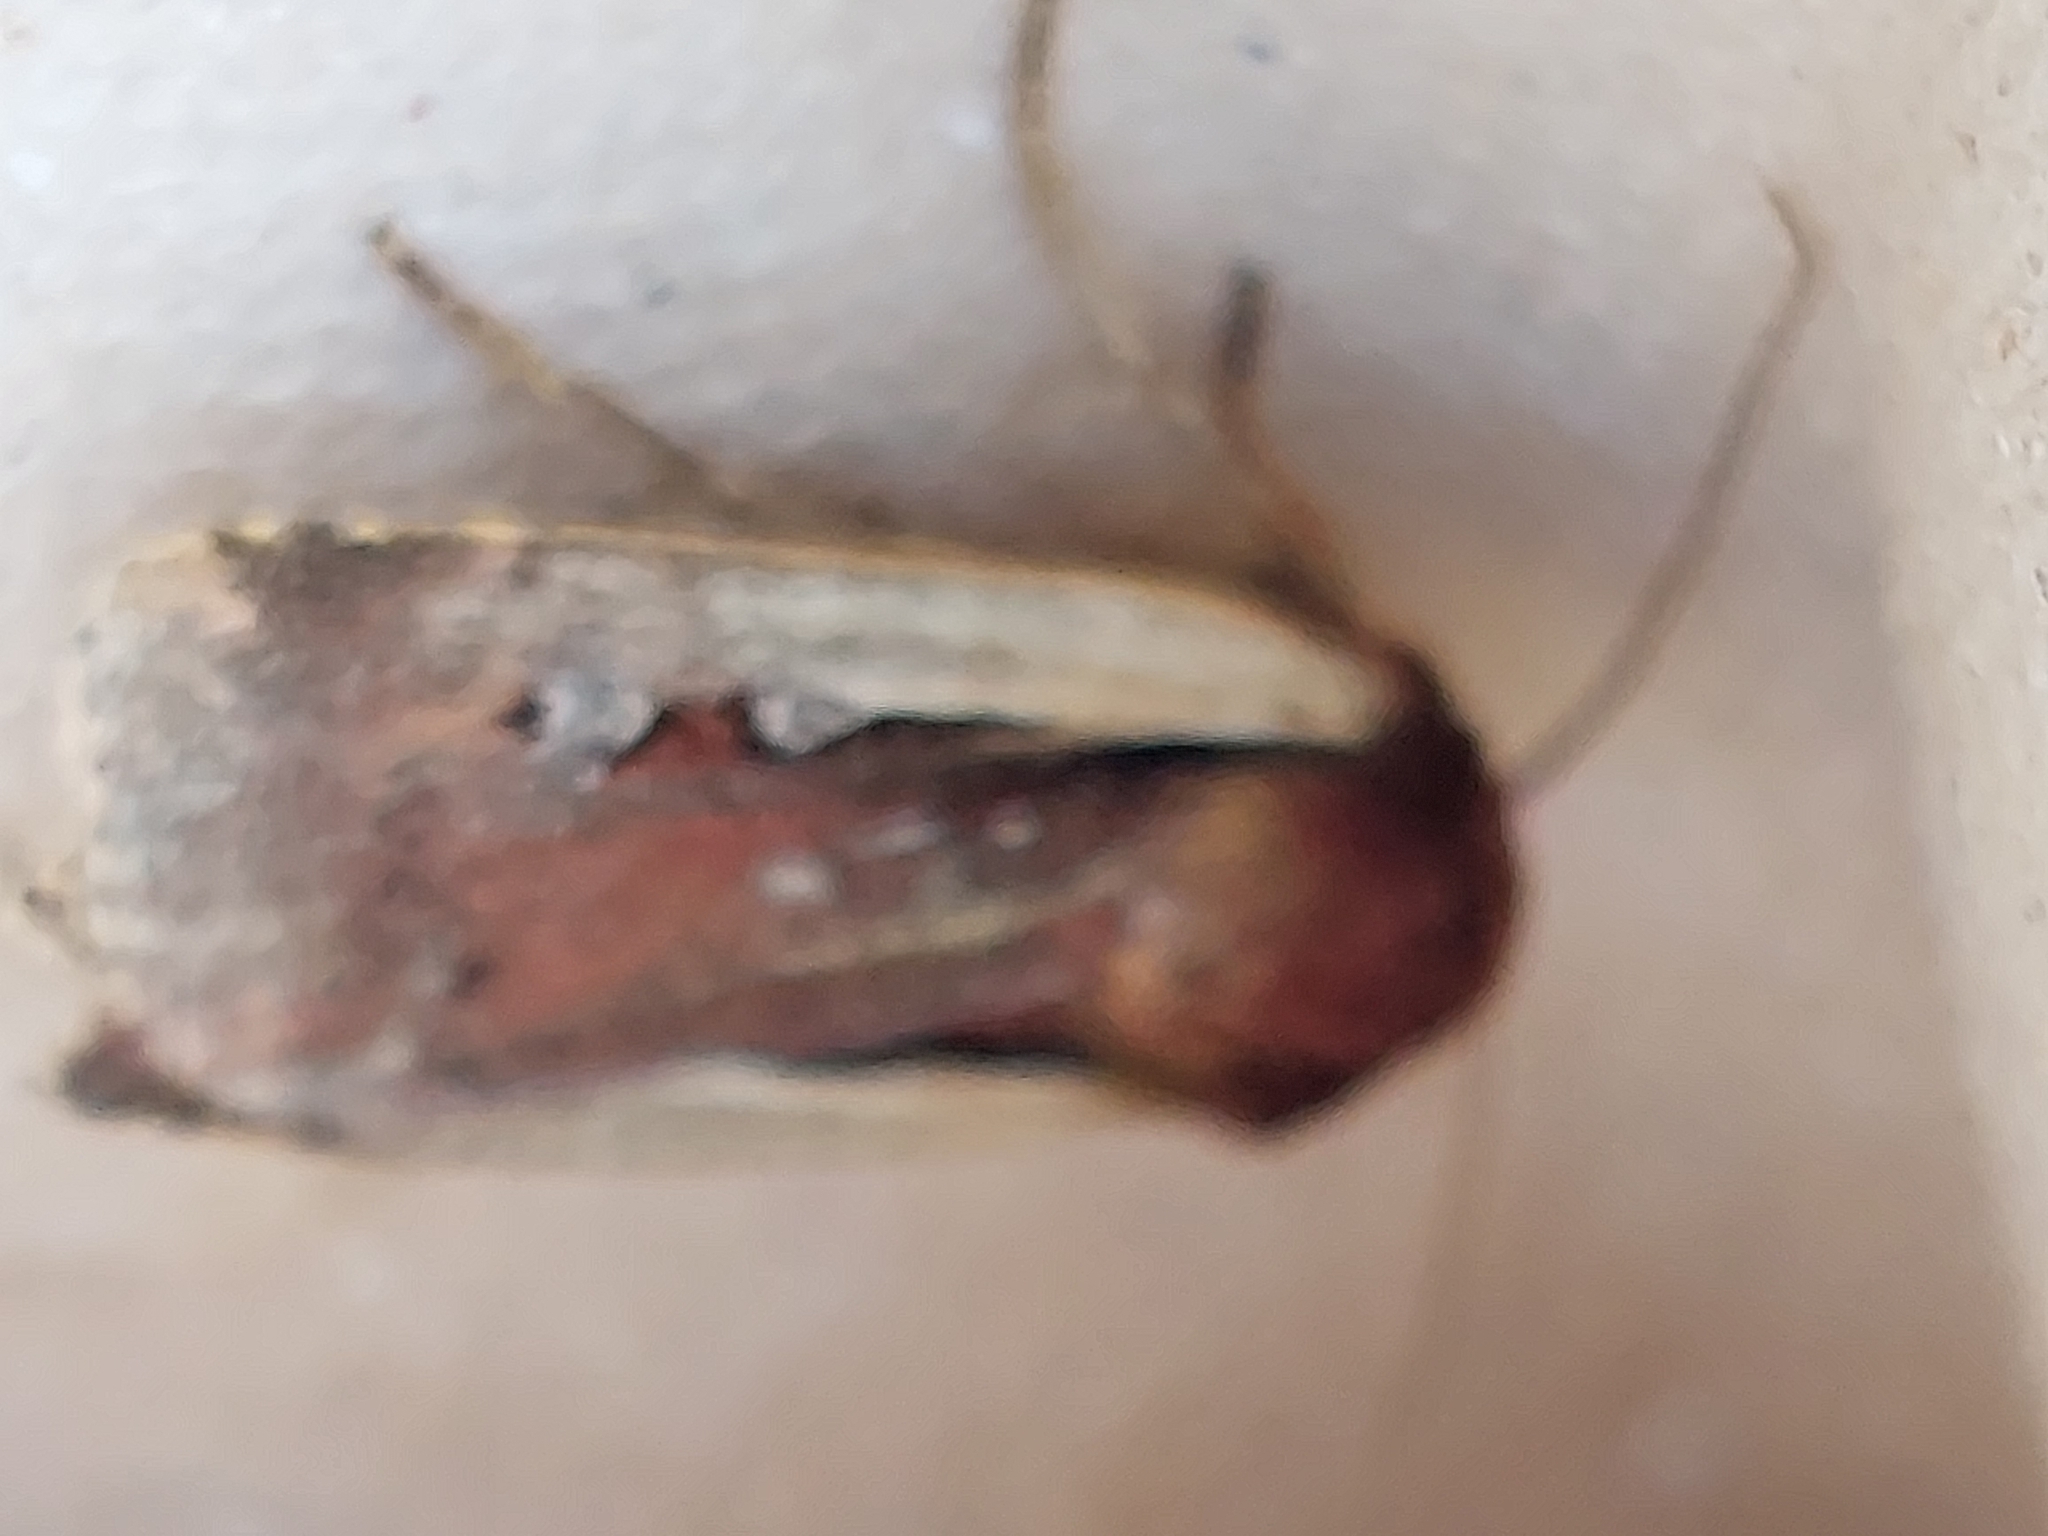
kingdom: Animalia
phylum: Arthropoda
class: Insecta
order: Lepidoptera
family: Noctuidae
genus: Ochropleura
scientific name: Ochropleura plecta
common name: Flame shoulder
